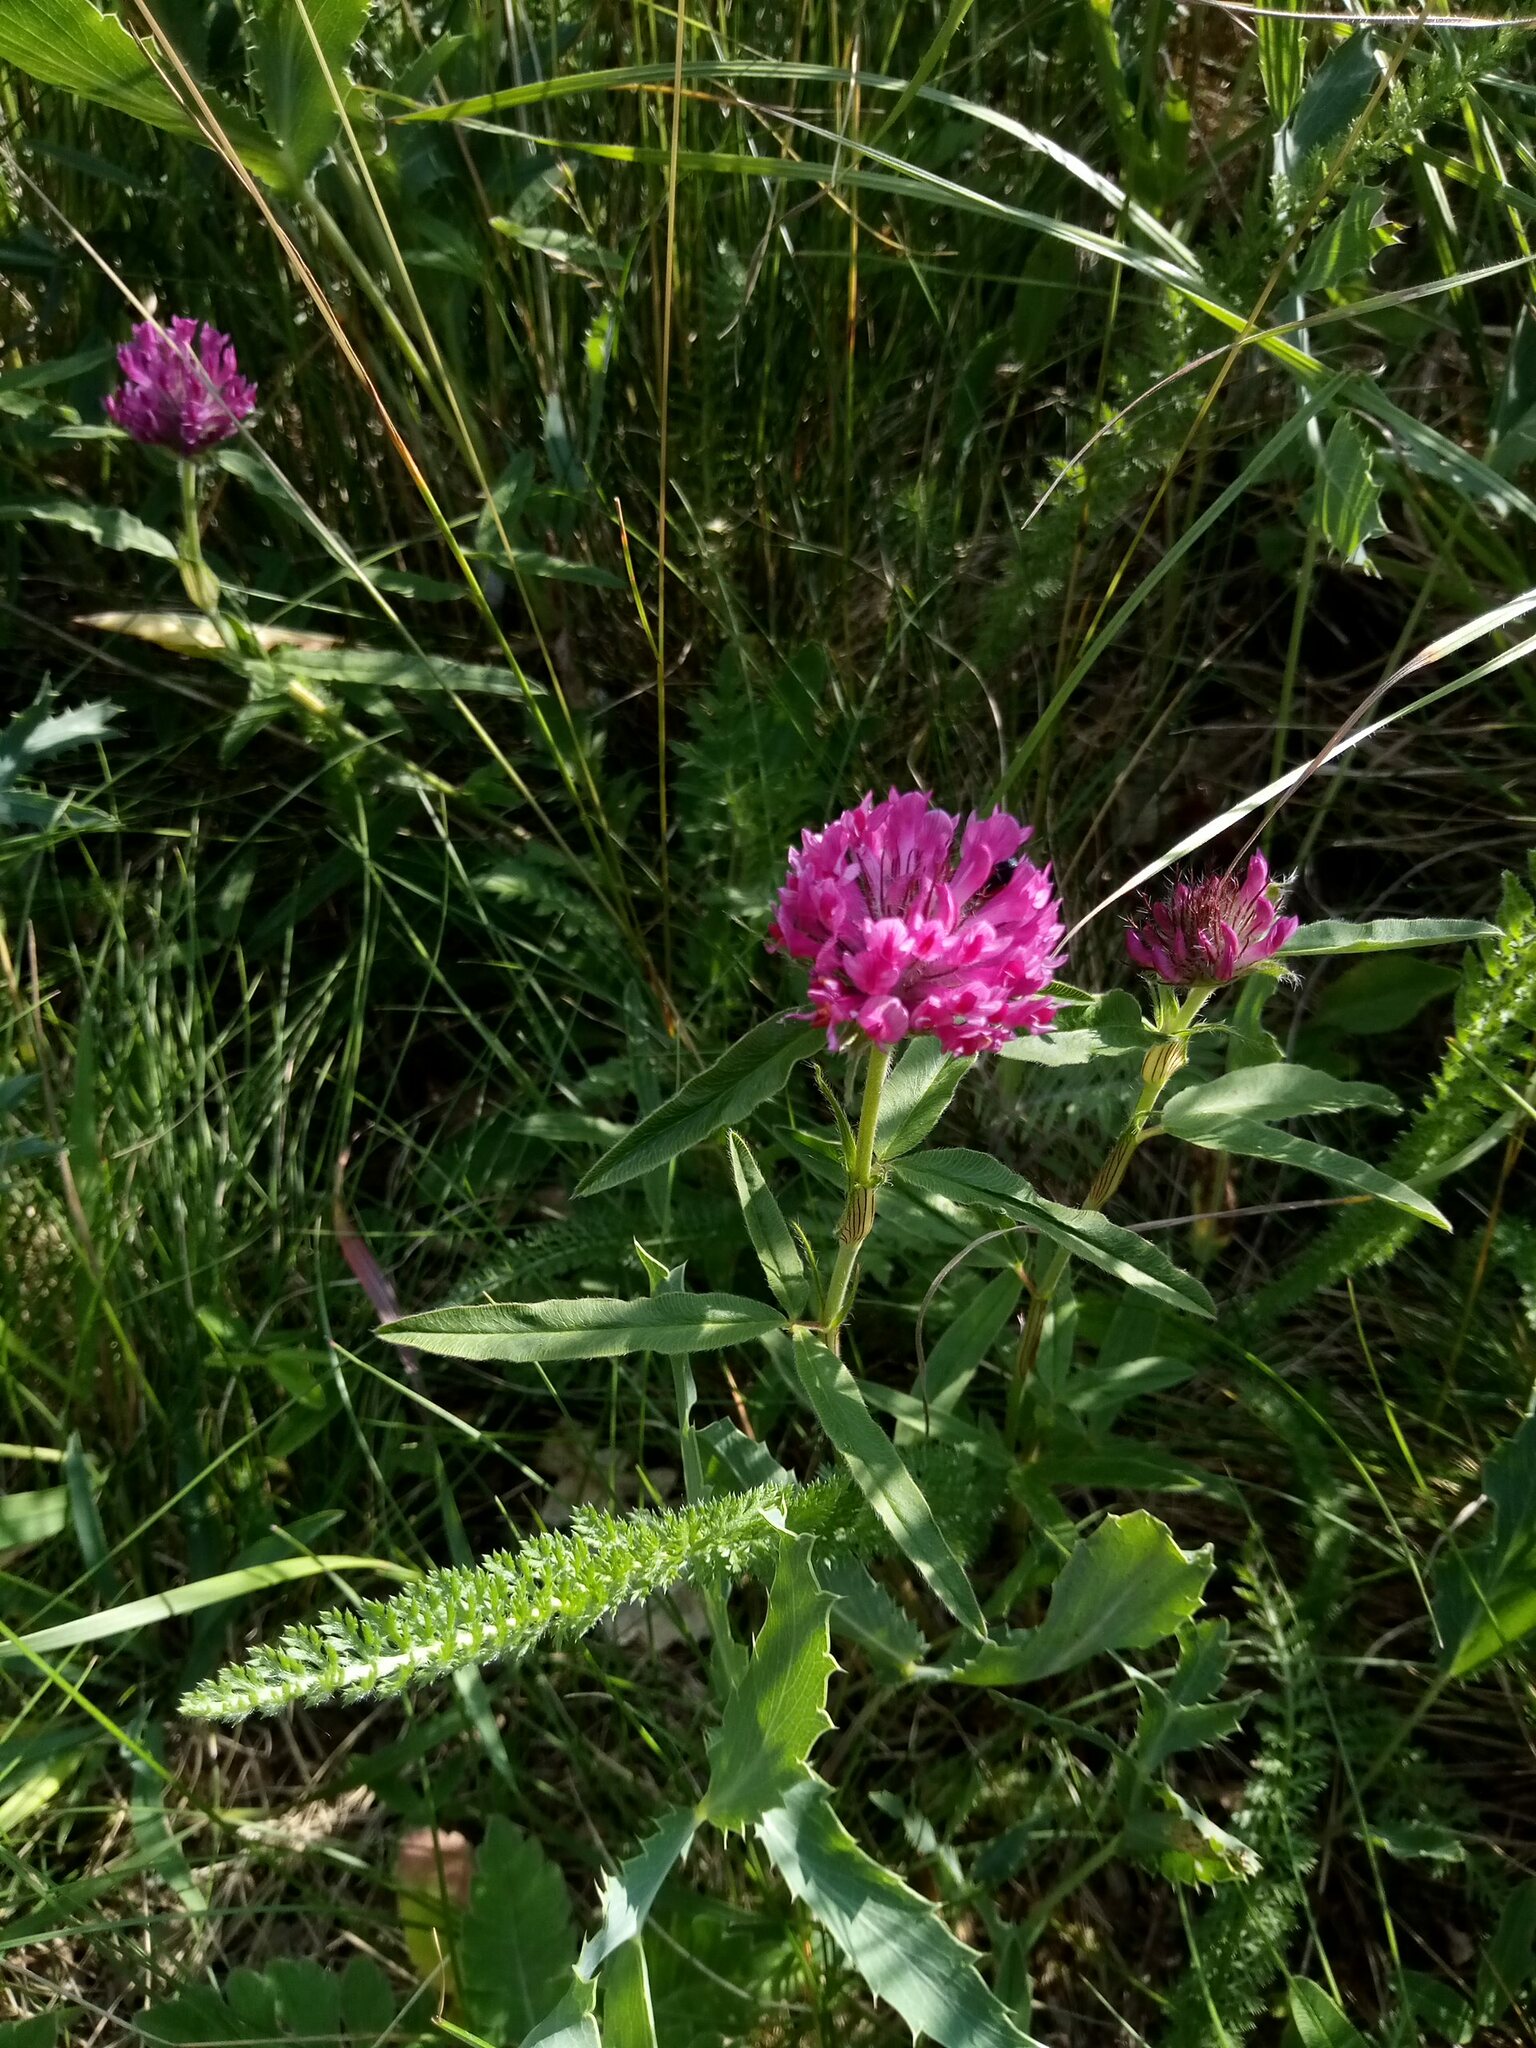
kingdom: Plantae
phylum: Tracheophyta
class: Magnoliopsida
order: Fabales
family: Fabaceae
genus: Trifolium
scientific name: Trifolium alpestre
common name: Owl-head clover
